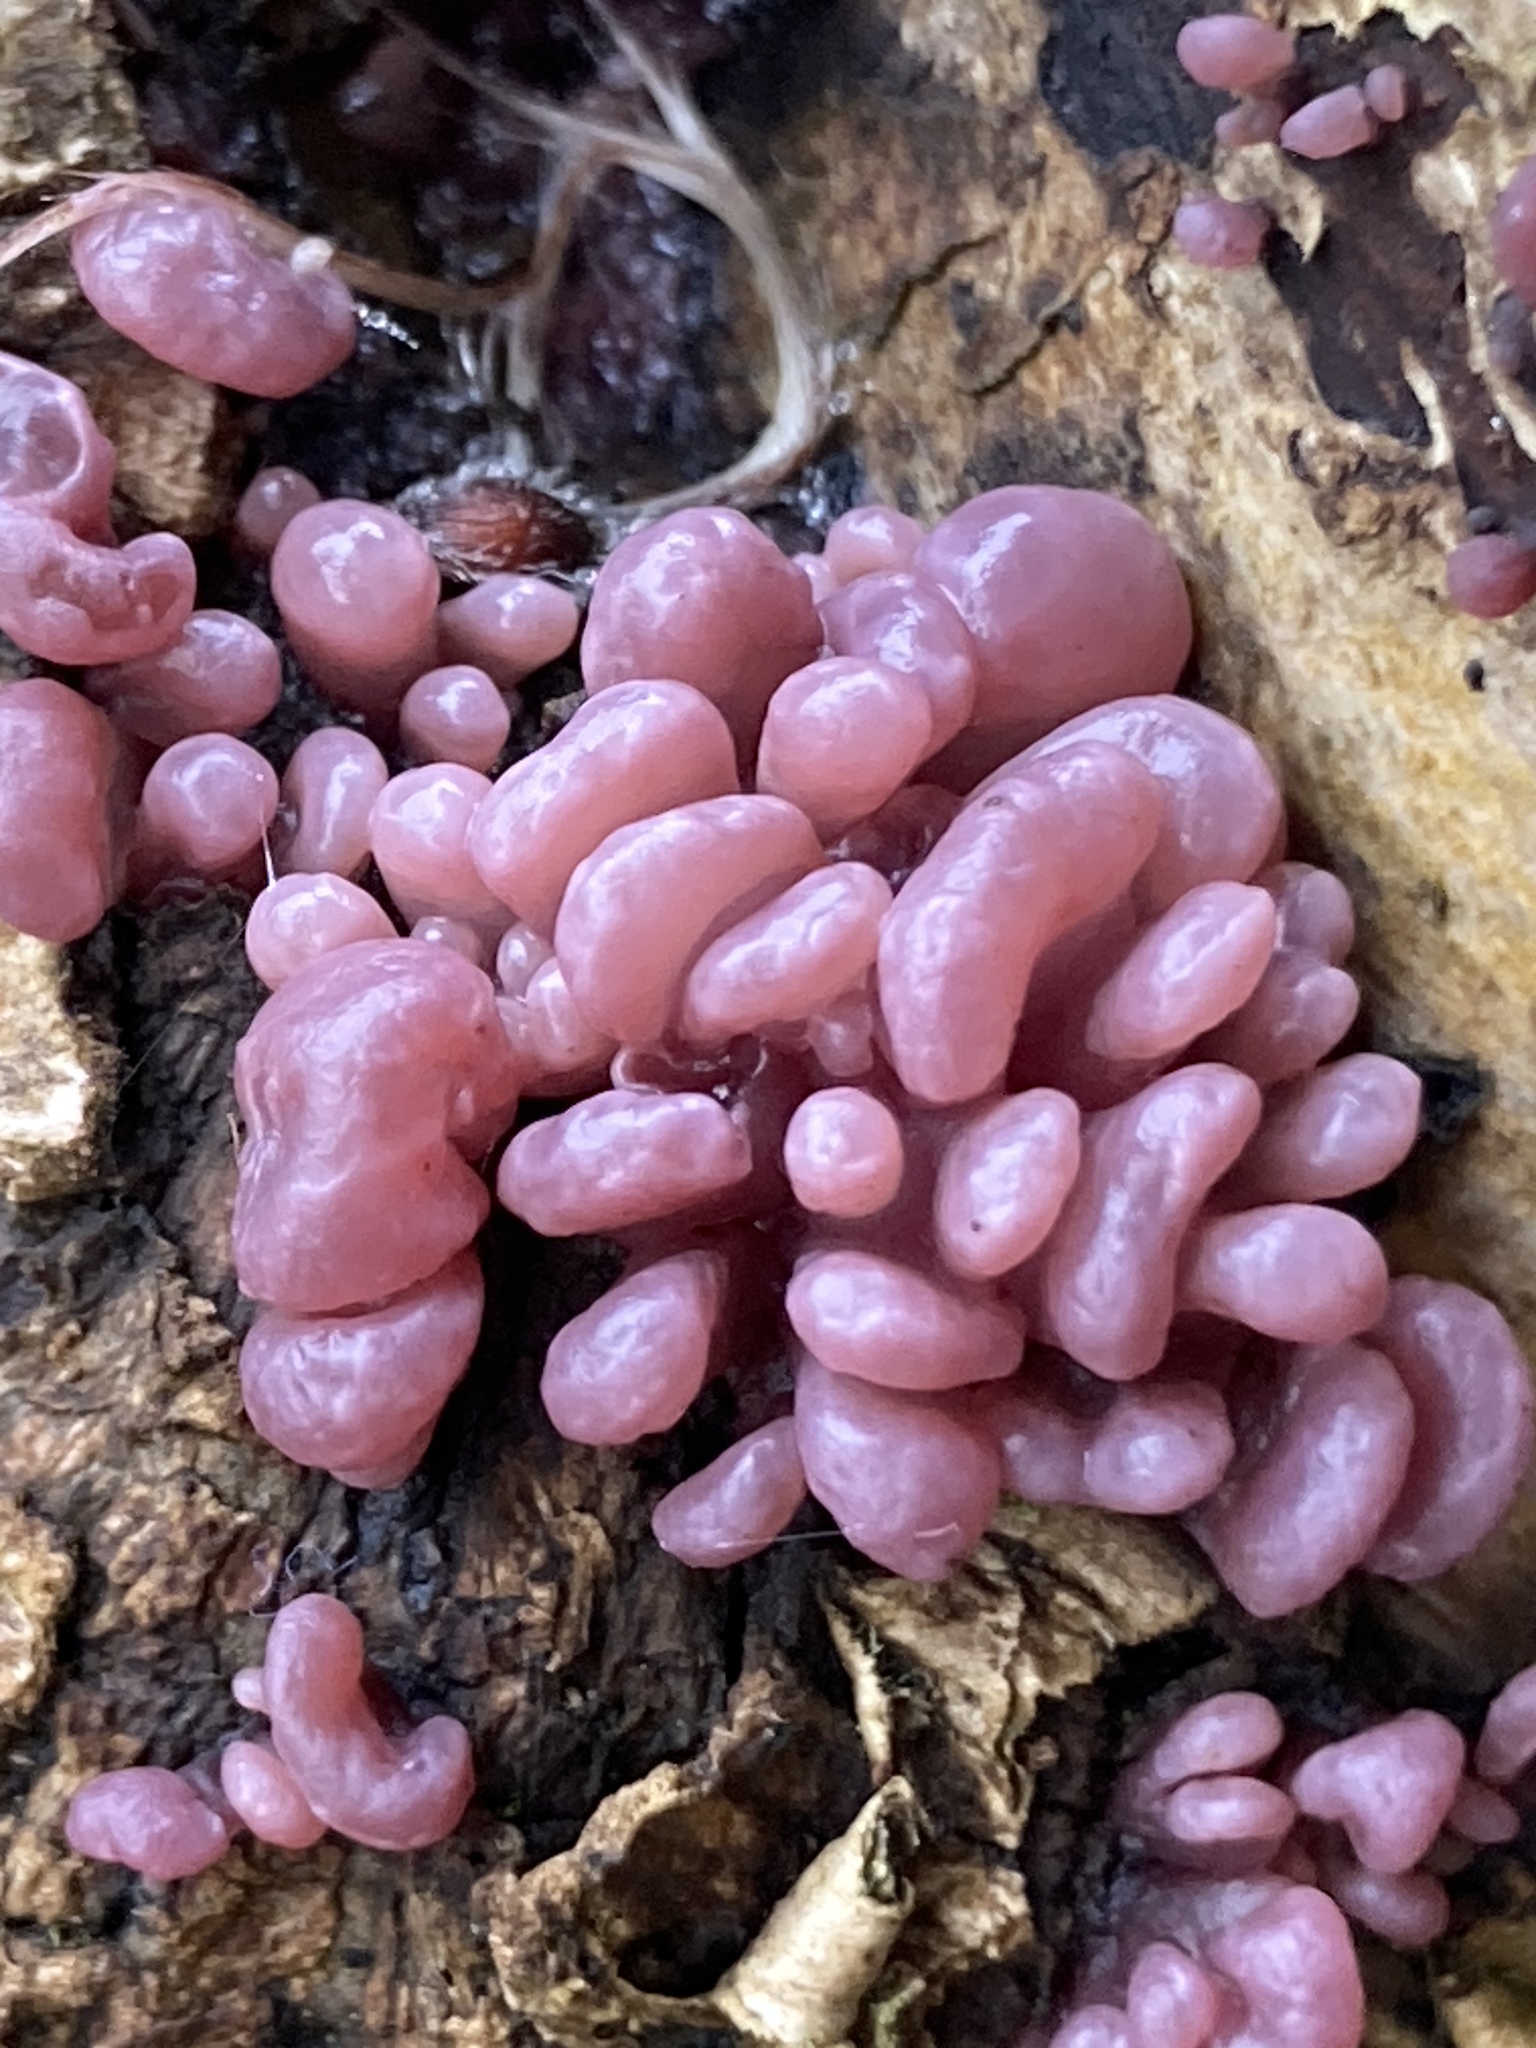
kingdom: Fungi
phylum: Ascomycota
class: Leotiomycetes
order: Helotiales
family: Gelatinodiscaceae
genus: Ascocoryne
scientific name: Ascocoryne sarcoides
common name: Purple jellydisc
